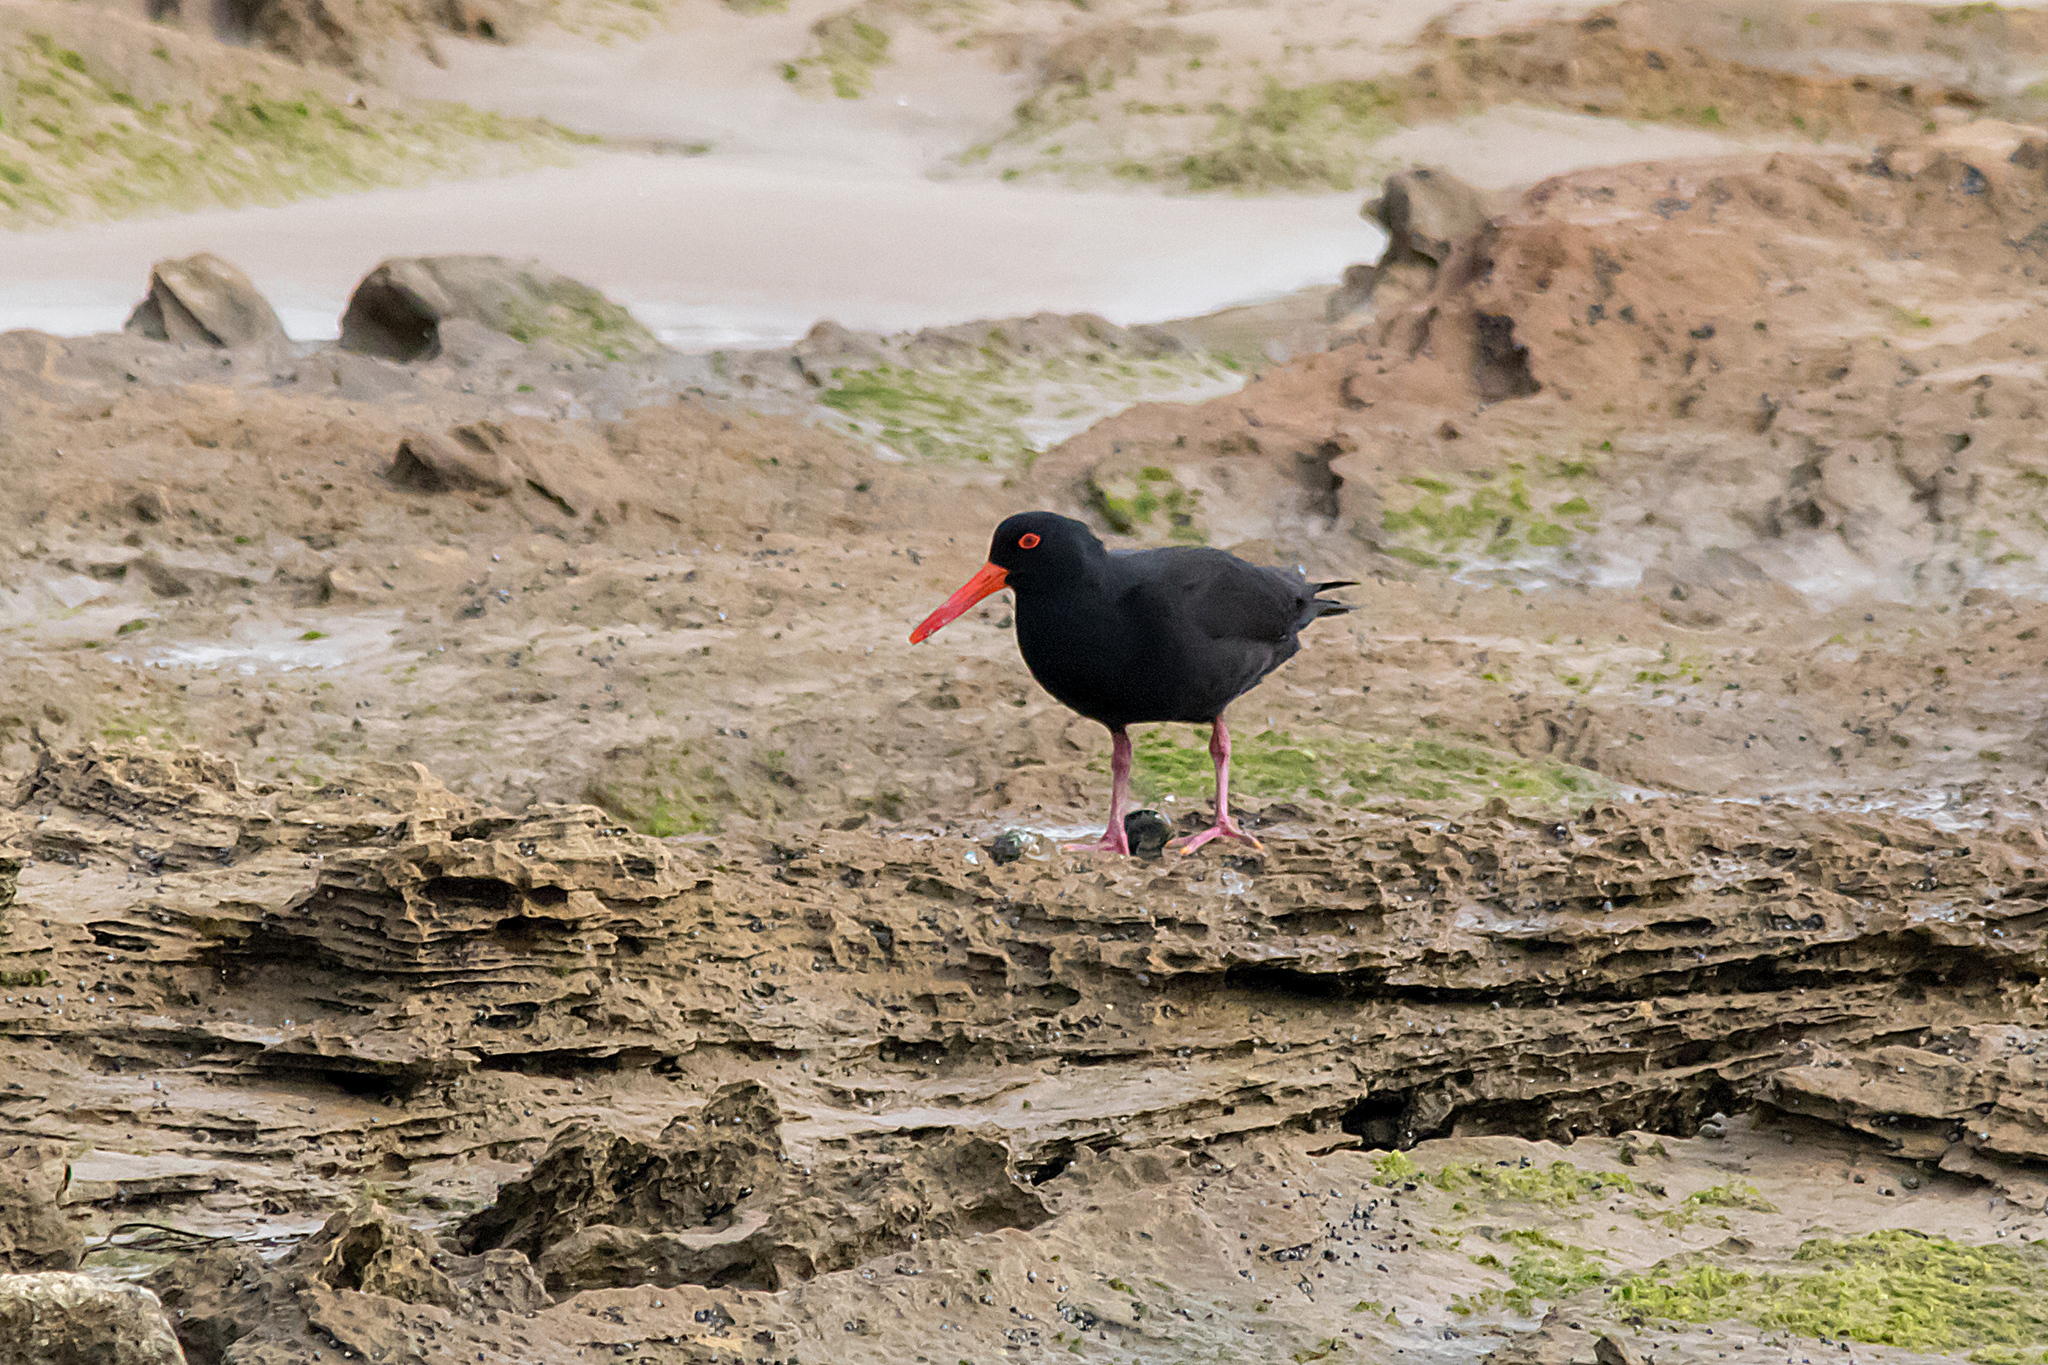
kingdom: Animalia
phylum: Chordata
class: Aves
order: Charadriiformes
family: Haematopodidae
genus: Haematopus
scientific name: Haematopus fuliginosus
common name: Sooty oystercatcher
